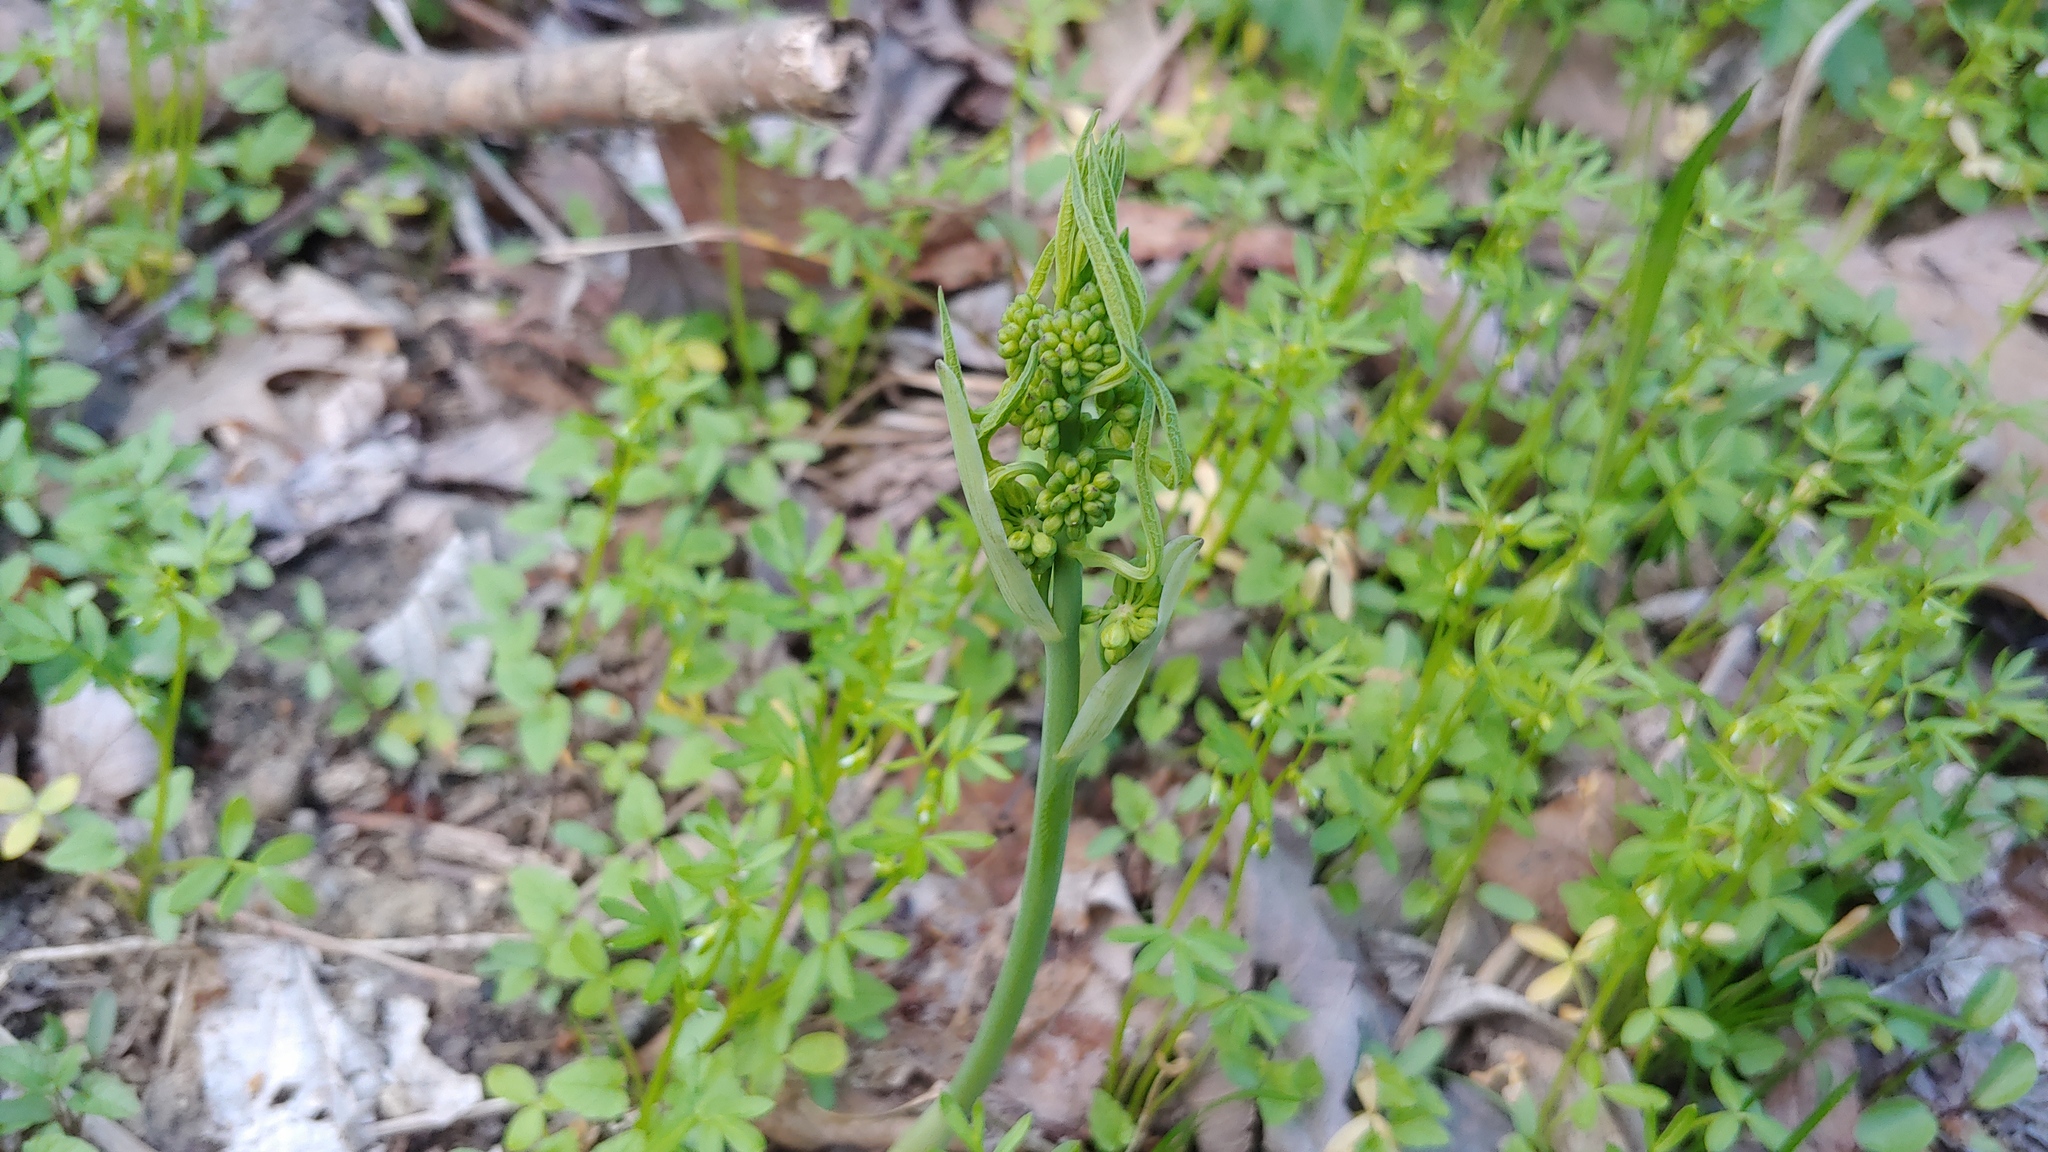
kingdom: Plantae
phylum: Tracheophyta
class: Liliopsida
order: Liliales
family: Smilacaceae
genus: Smilax
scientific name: Smilax illinoensis
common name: Illinois carrionflower
